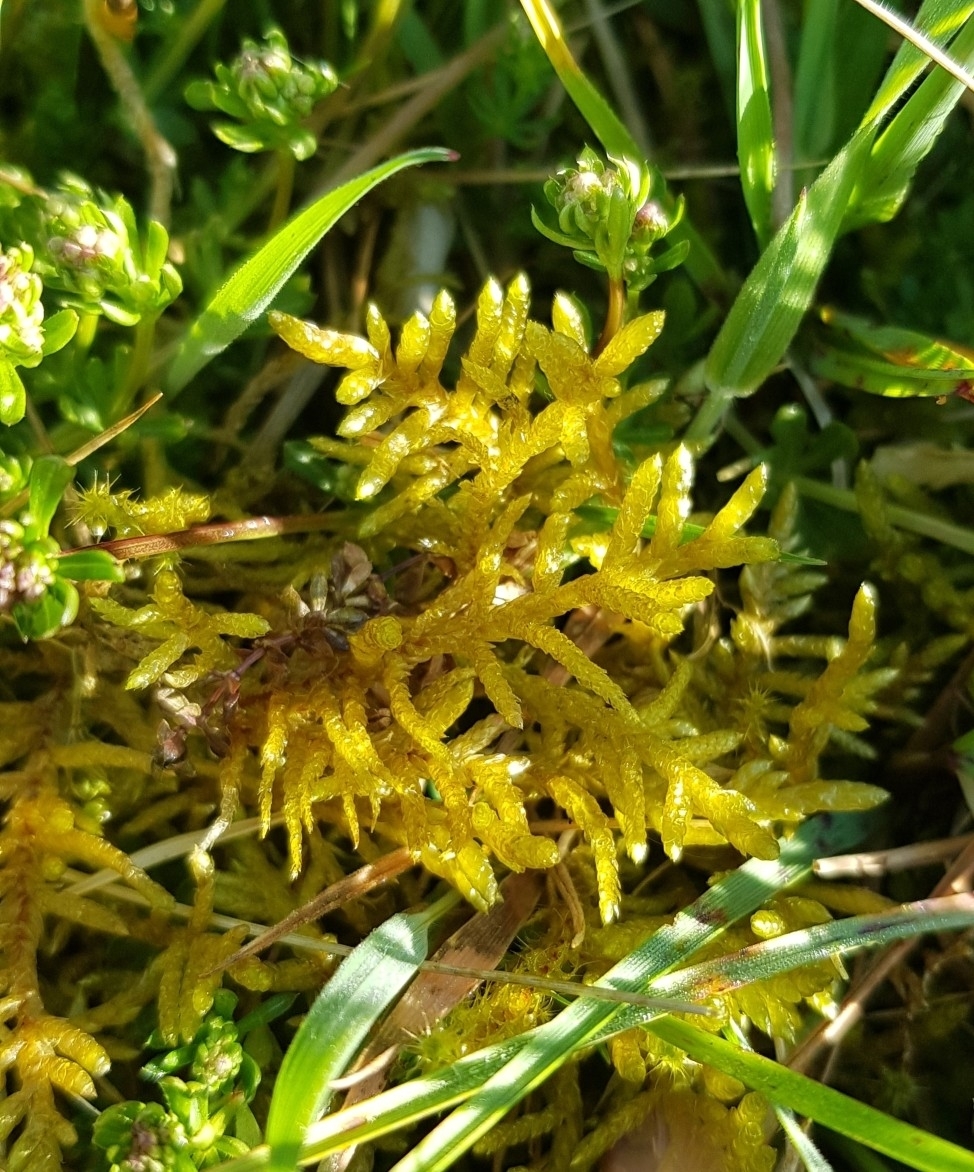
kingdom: Plantae
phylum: Bryophyta
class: Bryopsida
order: Hypnales
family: Brachytheciaceae
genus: Pseudoscleropodium
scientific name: Pseudoscleropodium purum
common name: Neat feather-moss
